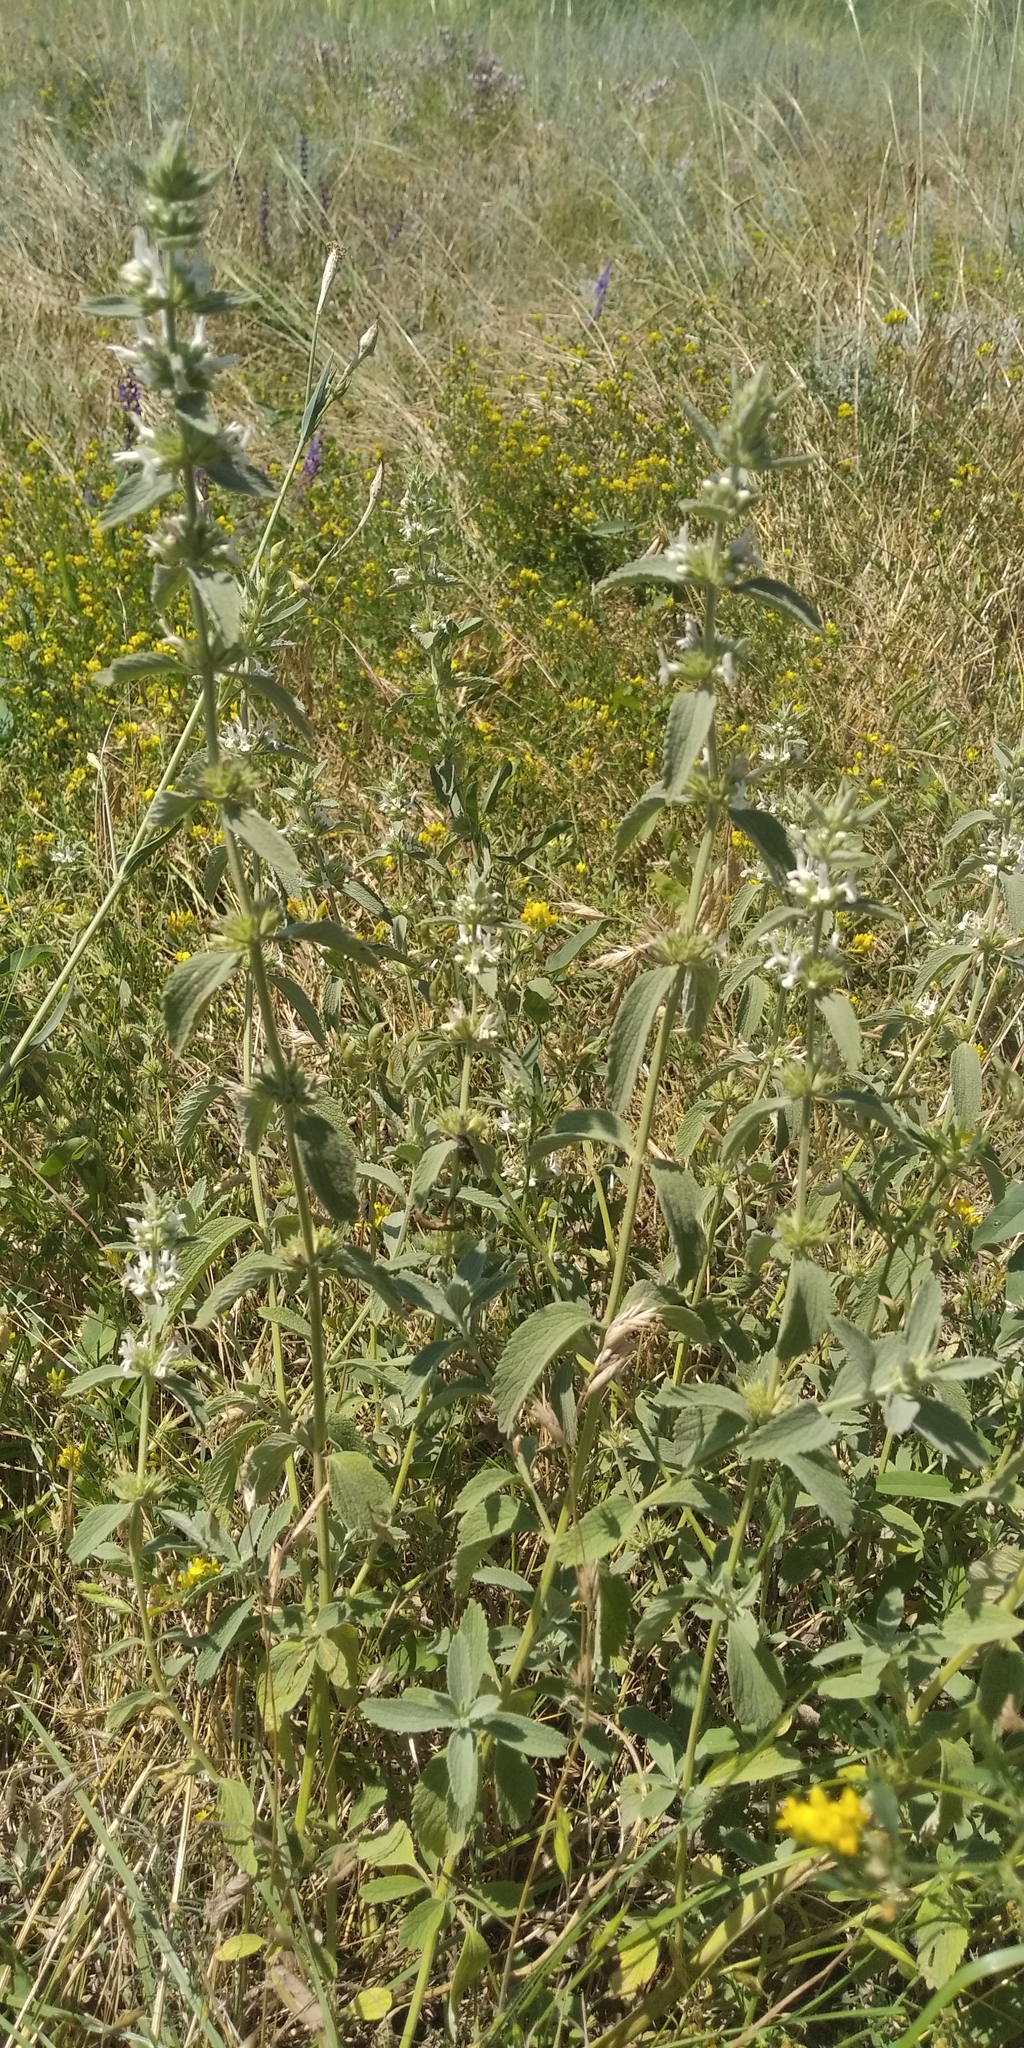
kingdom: Plantae
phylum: Tracheophyta
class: Magnoliopsida
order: Lamiales
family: Lamiaceae
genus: Marrubium
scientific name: Marrubium peregrinum
